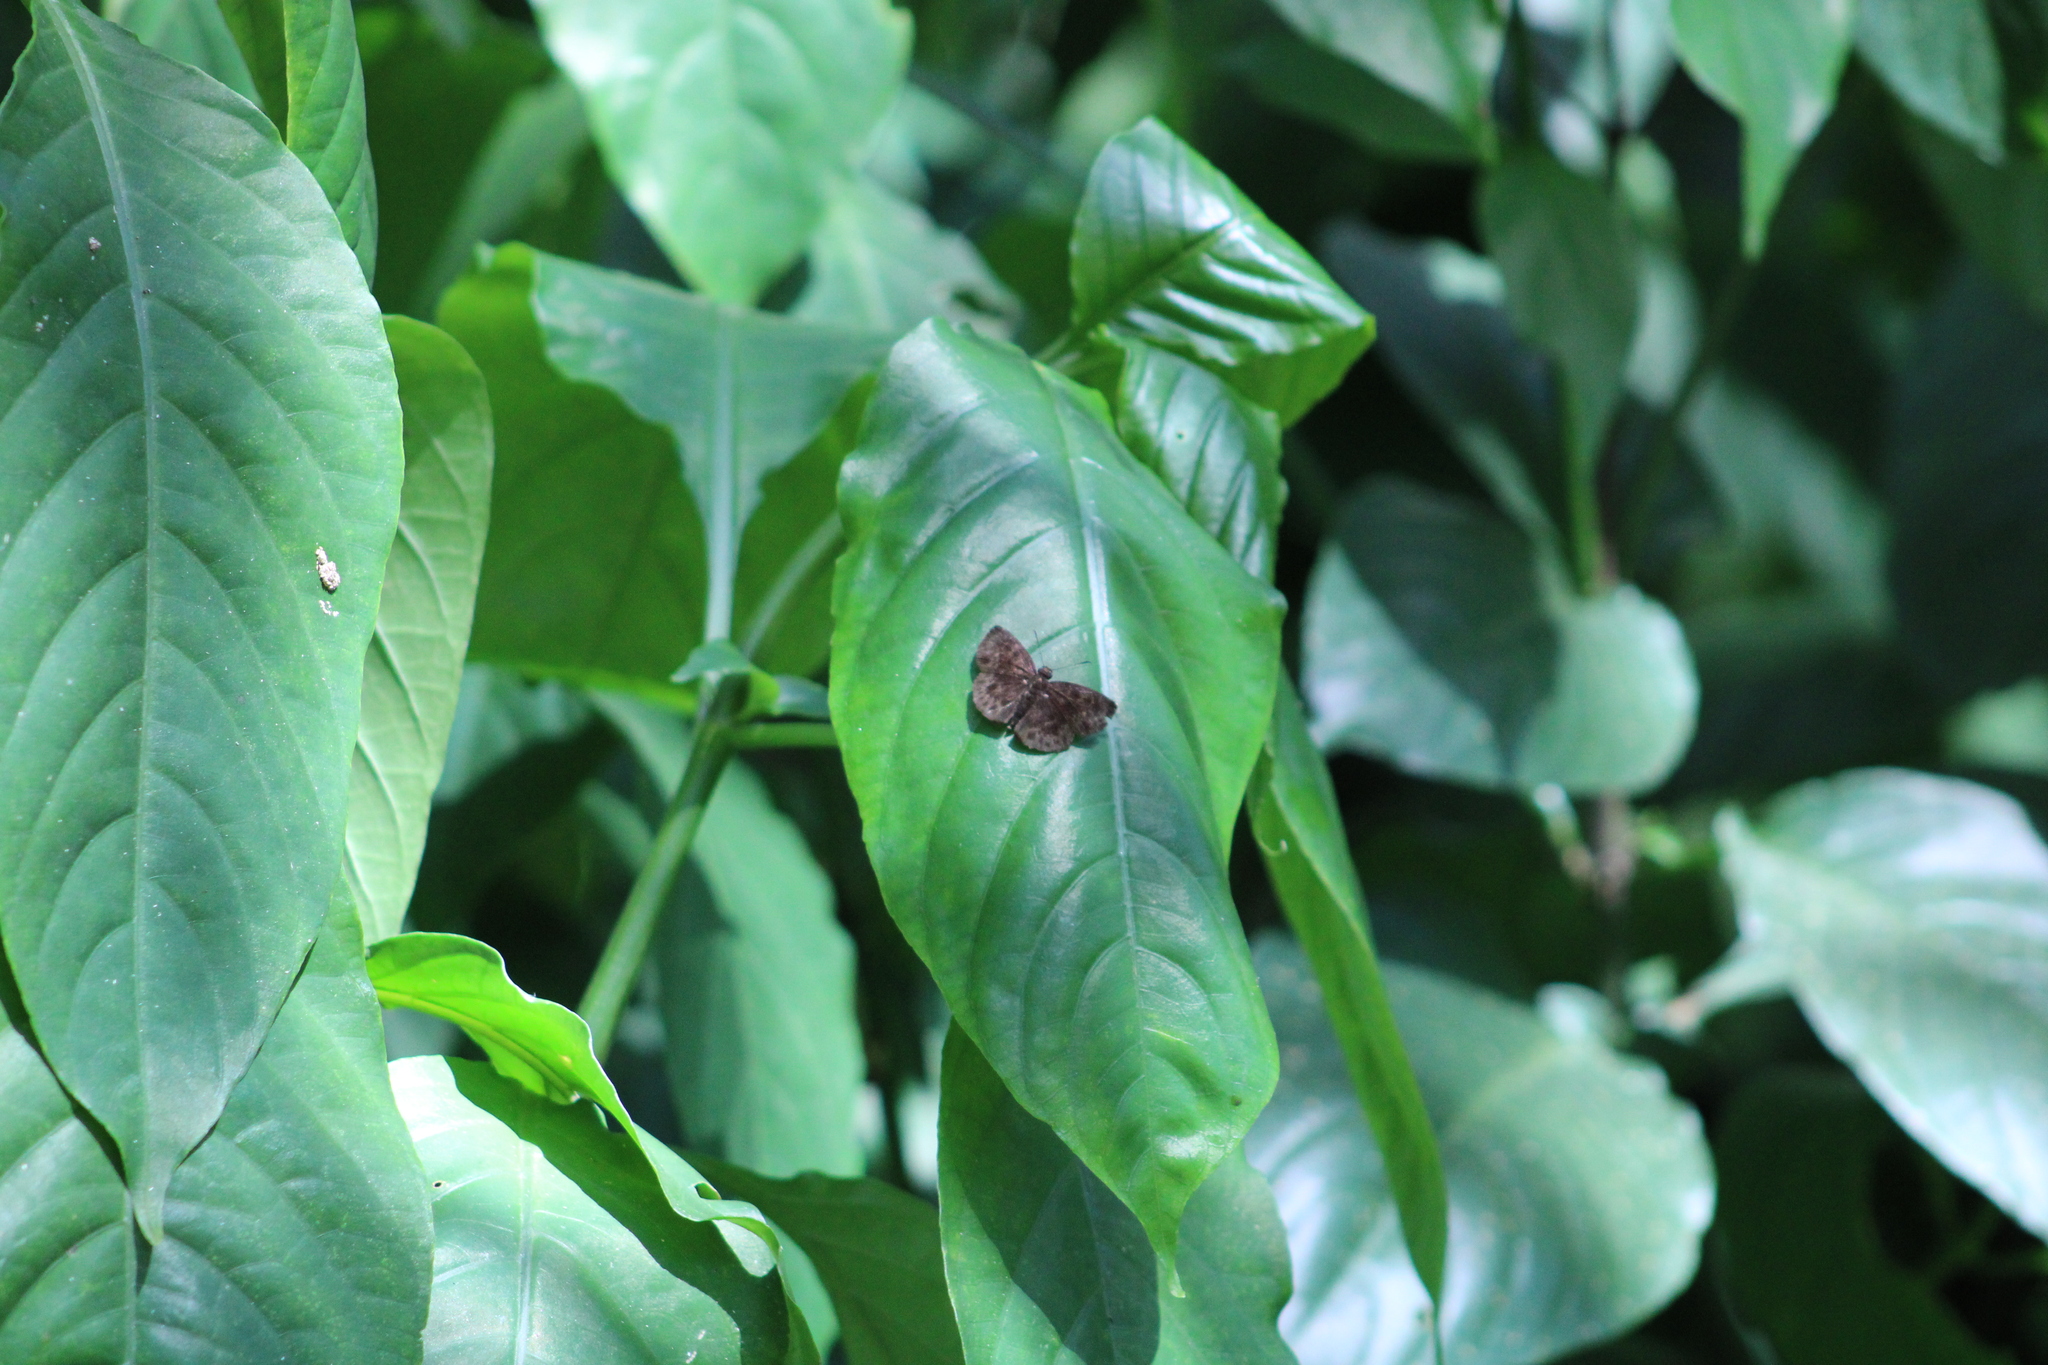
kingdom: Animalia
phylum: Arthropoda
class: Insecta
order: Lepidoptera
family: Hesperiidae
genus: Ouleus
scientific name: Ouleus fridericus
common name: Fridericus spreadwing
